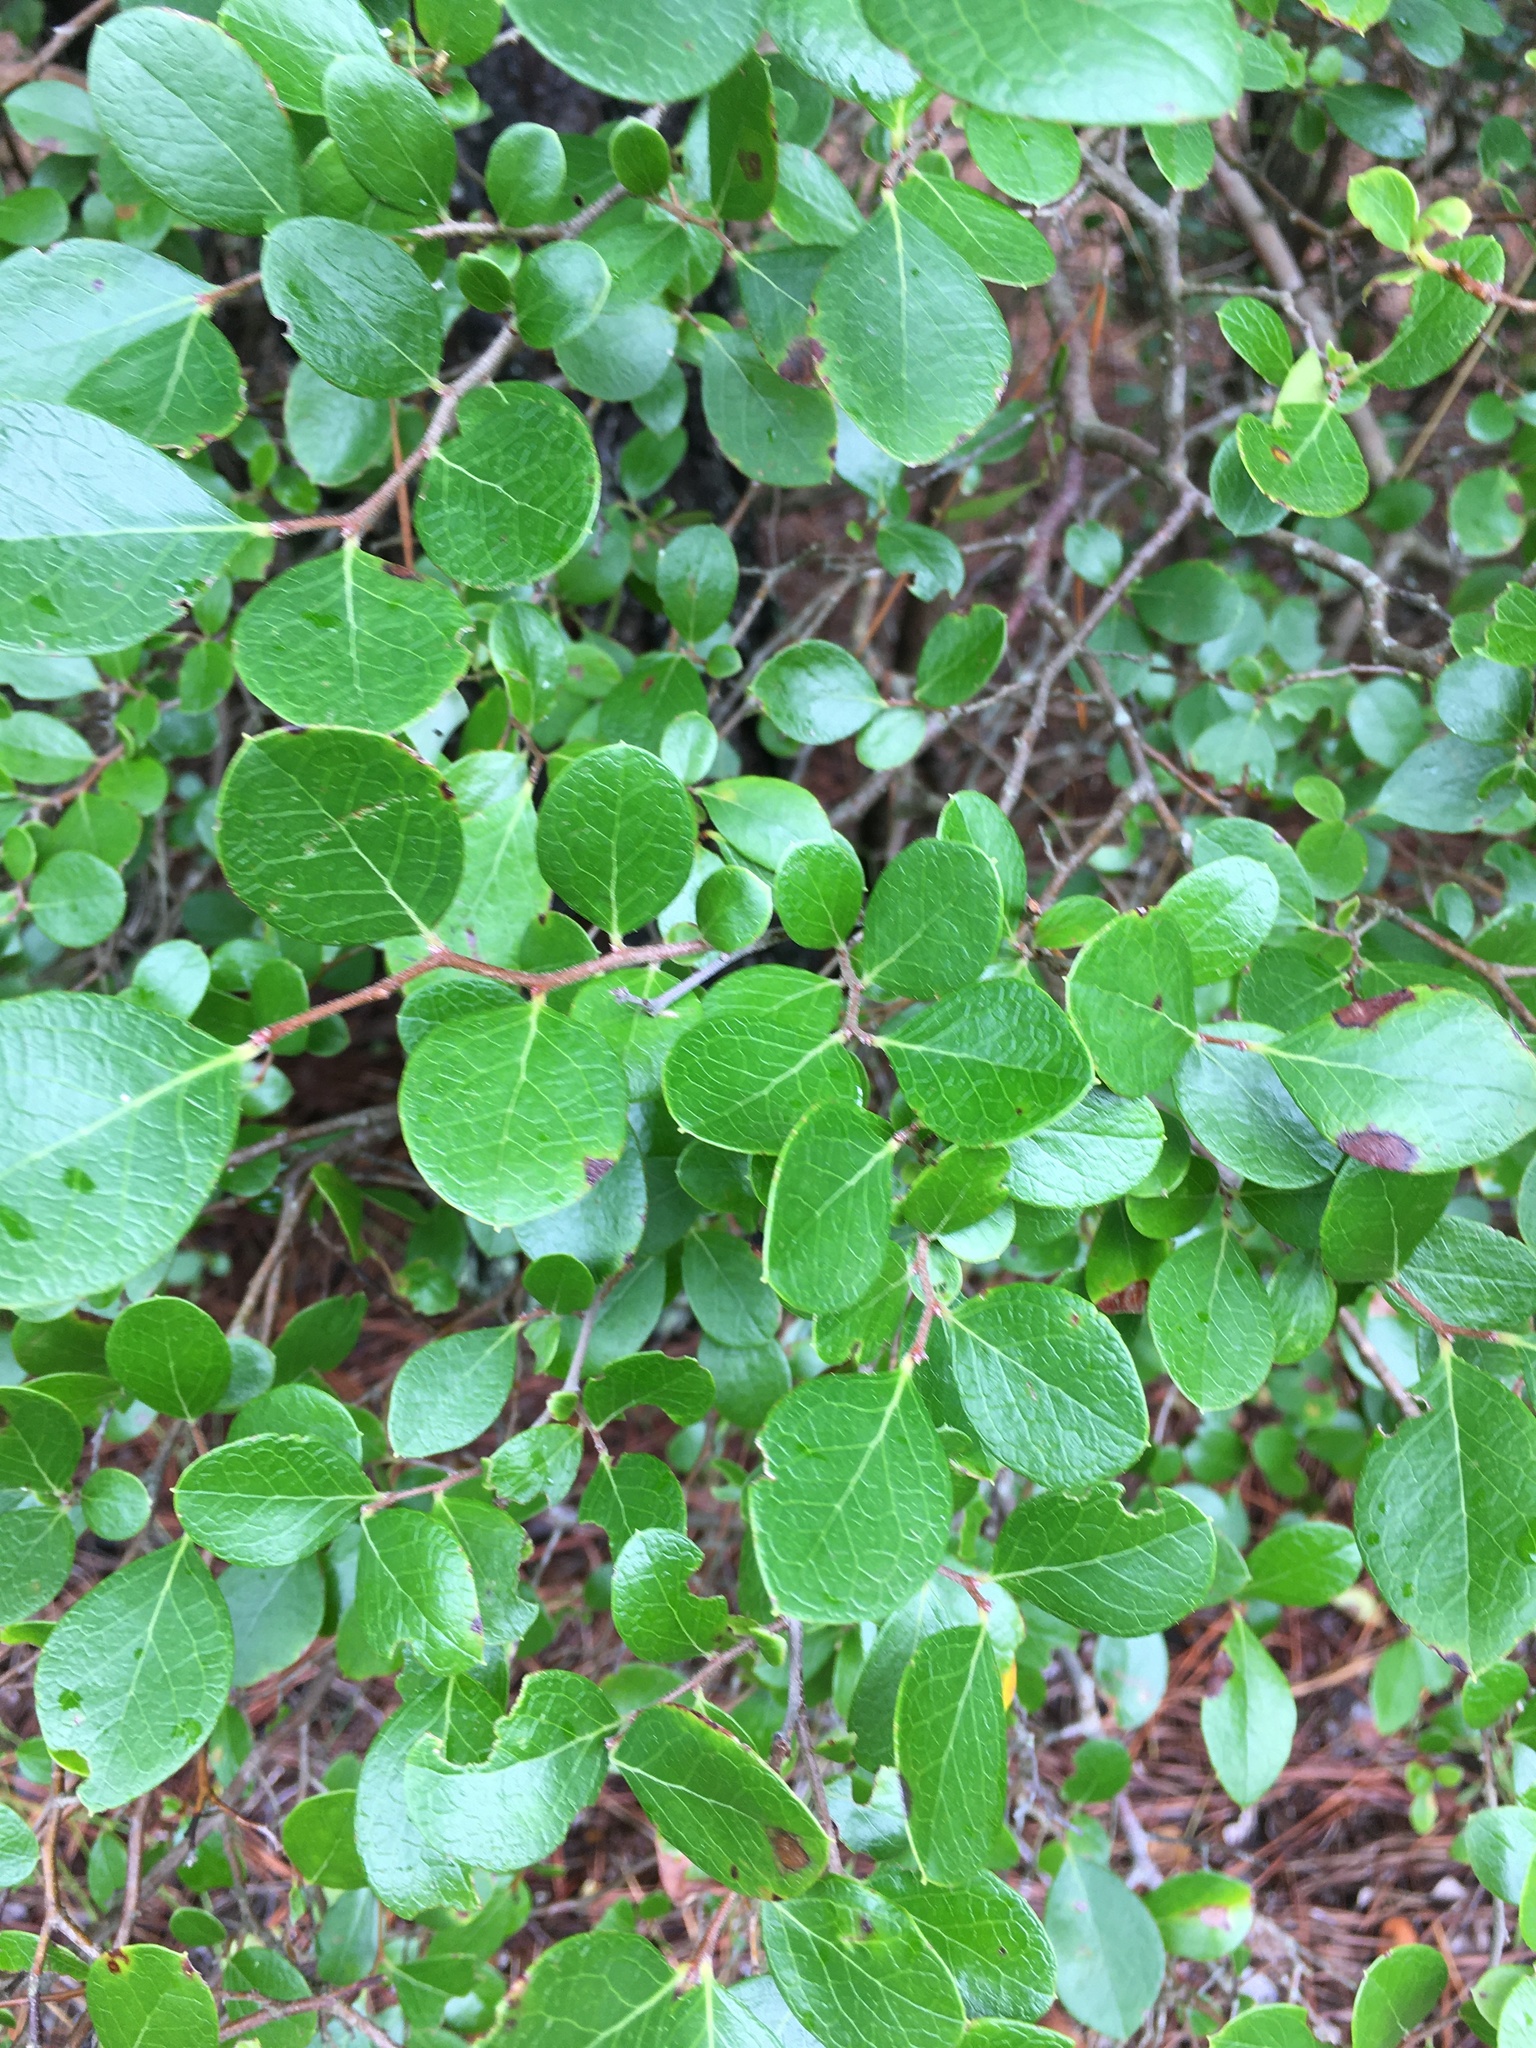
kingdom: Plantae
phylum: Tracheophyta
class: Magnoliopsida
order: Ericales
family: Ericaceae
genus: Vaccinium
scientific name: Vaccinium arboreum
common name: Farkleberry
